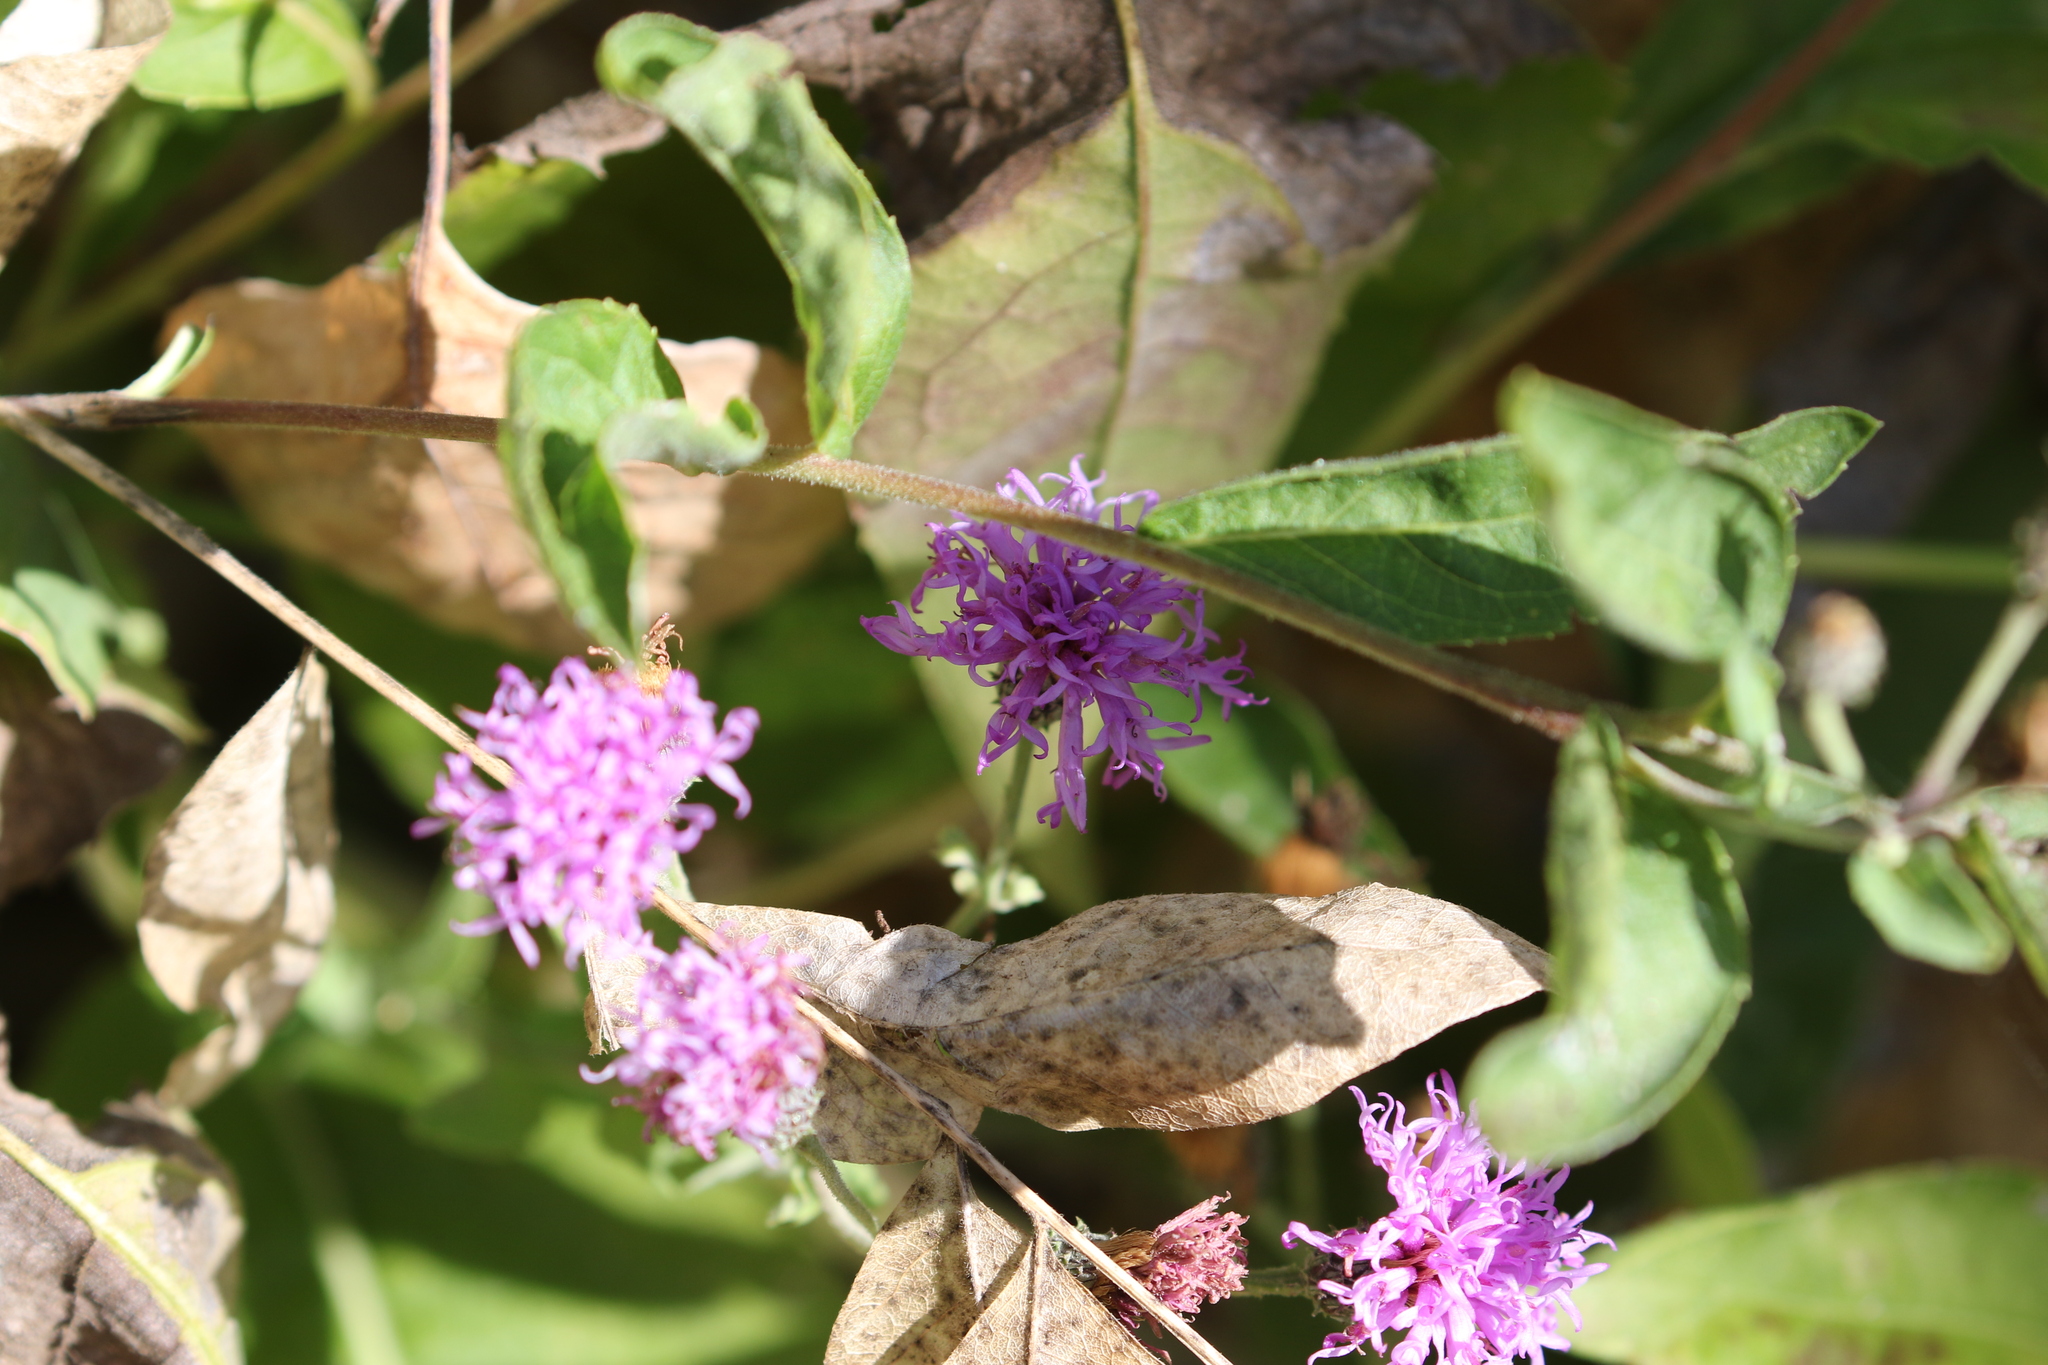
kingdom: Plantae
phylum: Tracheophyta
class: Magnoliopsida
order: Asterales
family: Asteraceae
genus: Vernonia
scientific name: Vernonia baldwinii
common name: Western ironweed
